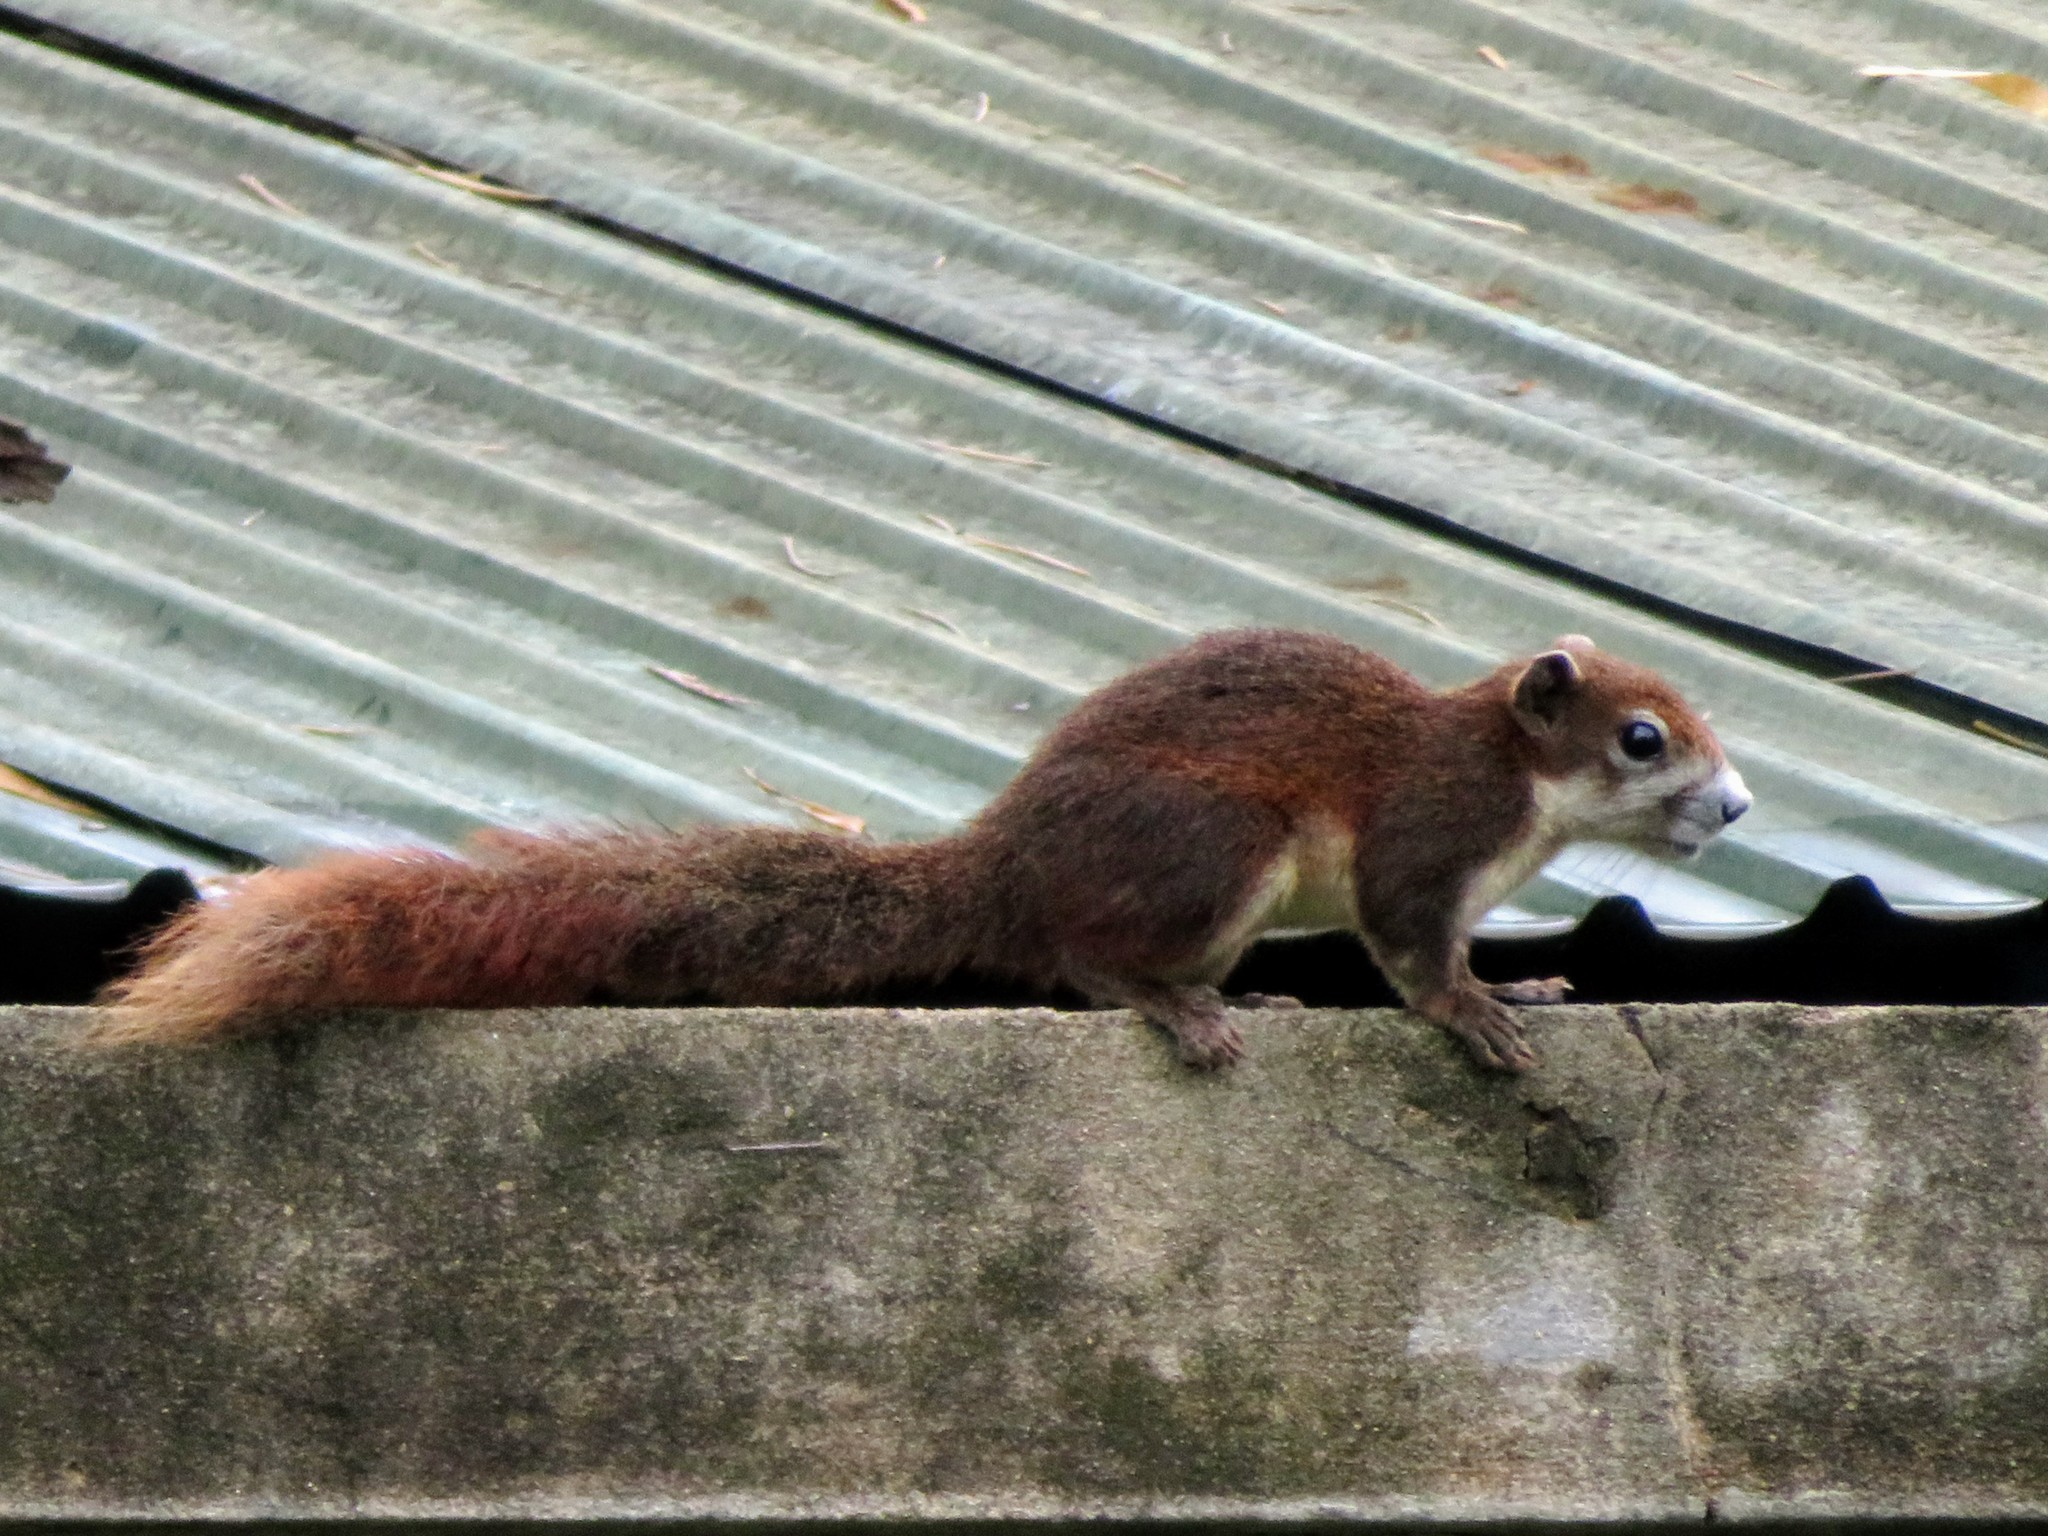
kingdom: Animalia
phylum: Chordata
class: Mammalia
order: Rodentia
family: Sciuridae
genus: Callosciurus
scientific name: Callosciurus finlaysonii
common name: Finlayson's squirrel
